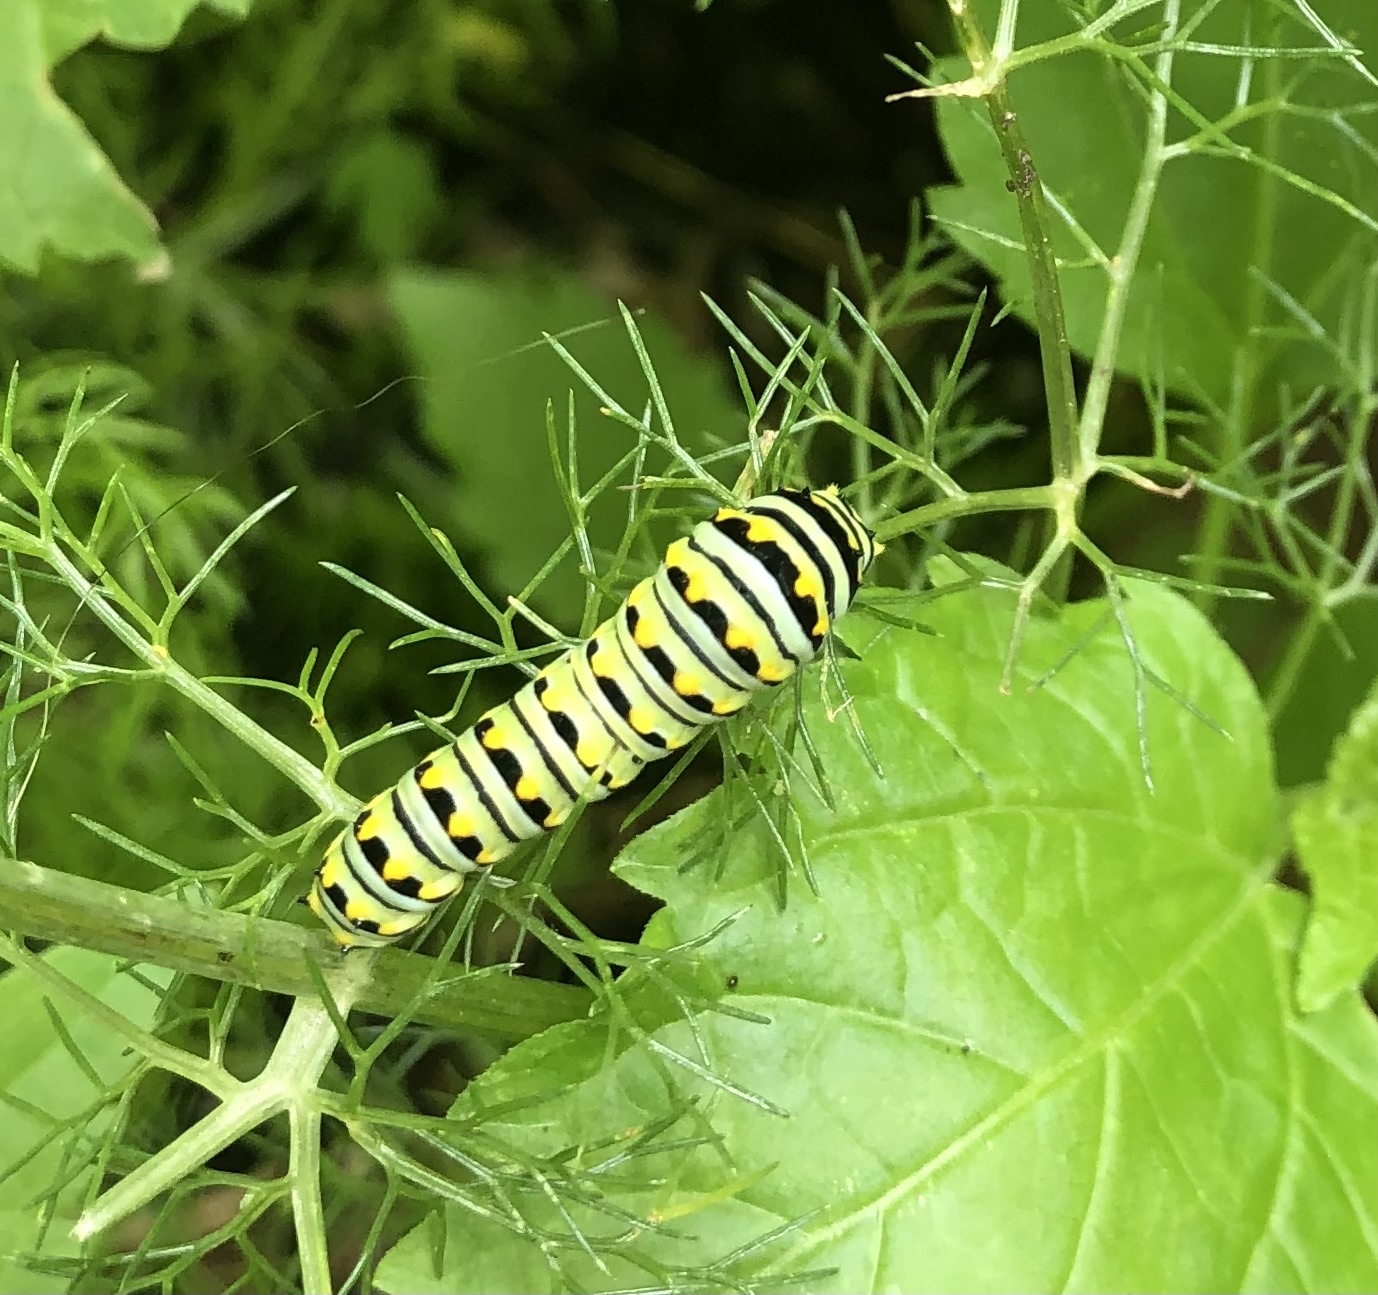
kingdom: Animalia
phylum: Arthropoda
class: Insecta
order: Lepidoptera
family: Papilionidae
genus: Papilio
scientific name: Papilio polyxenes
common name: Black swallowtail
